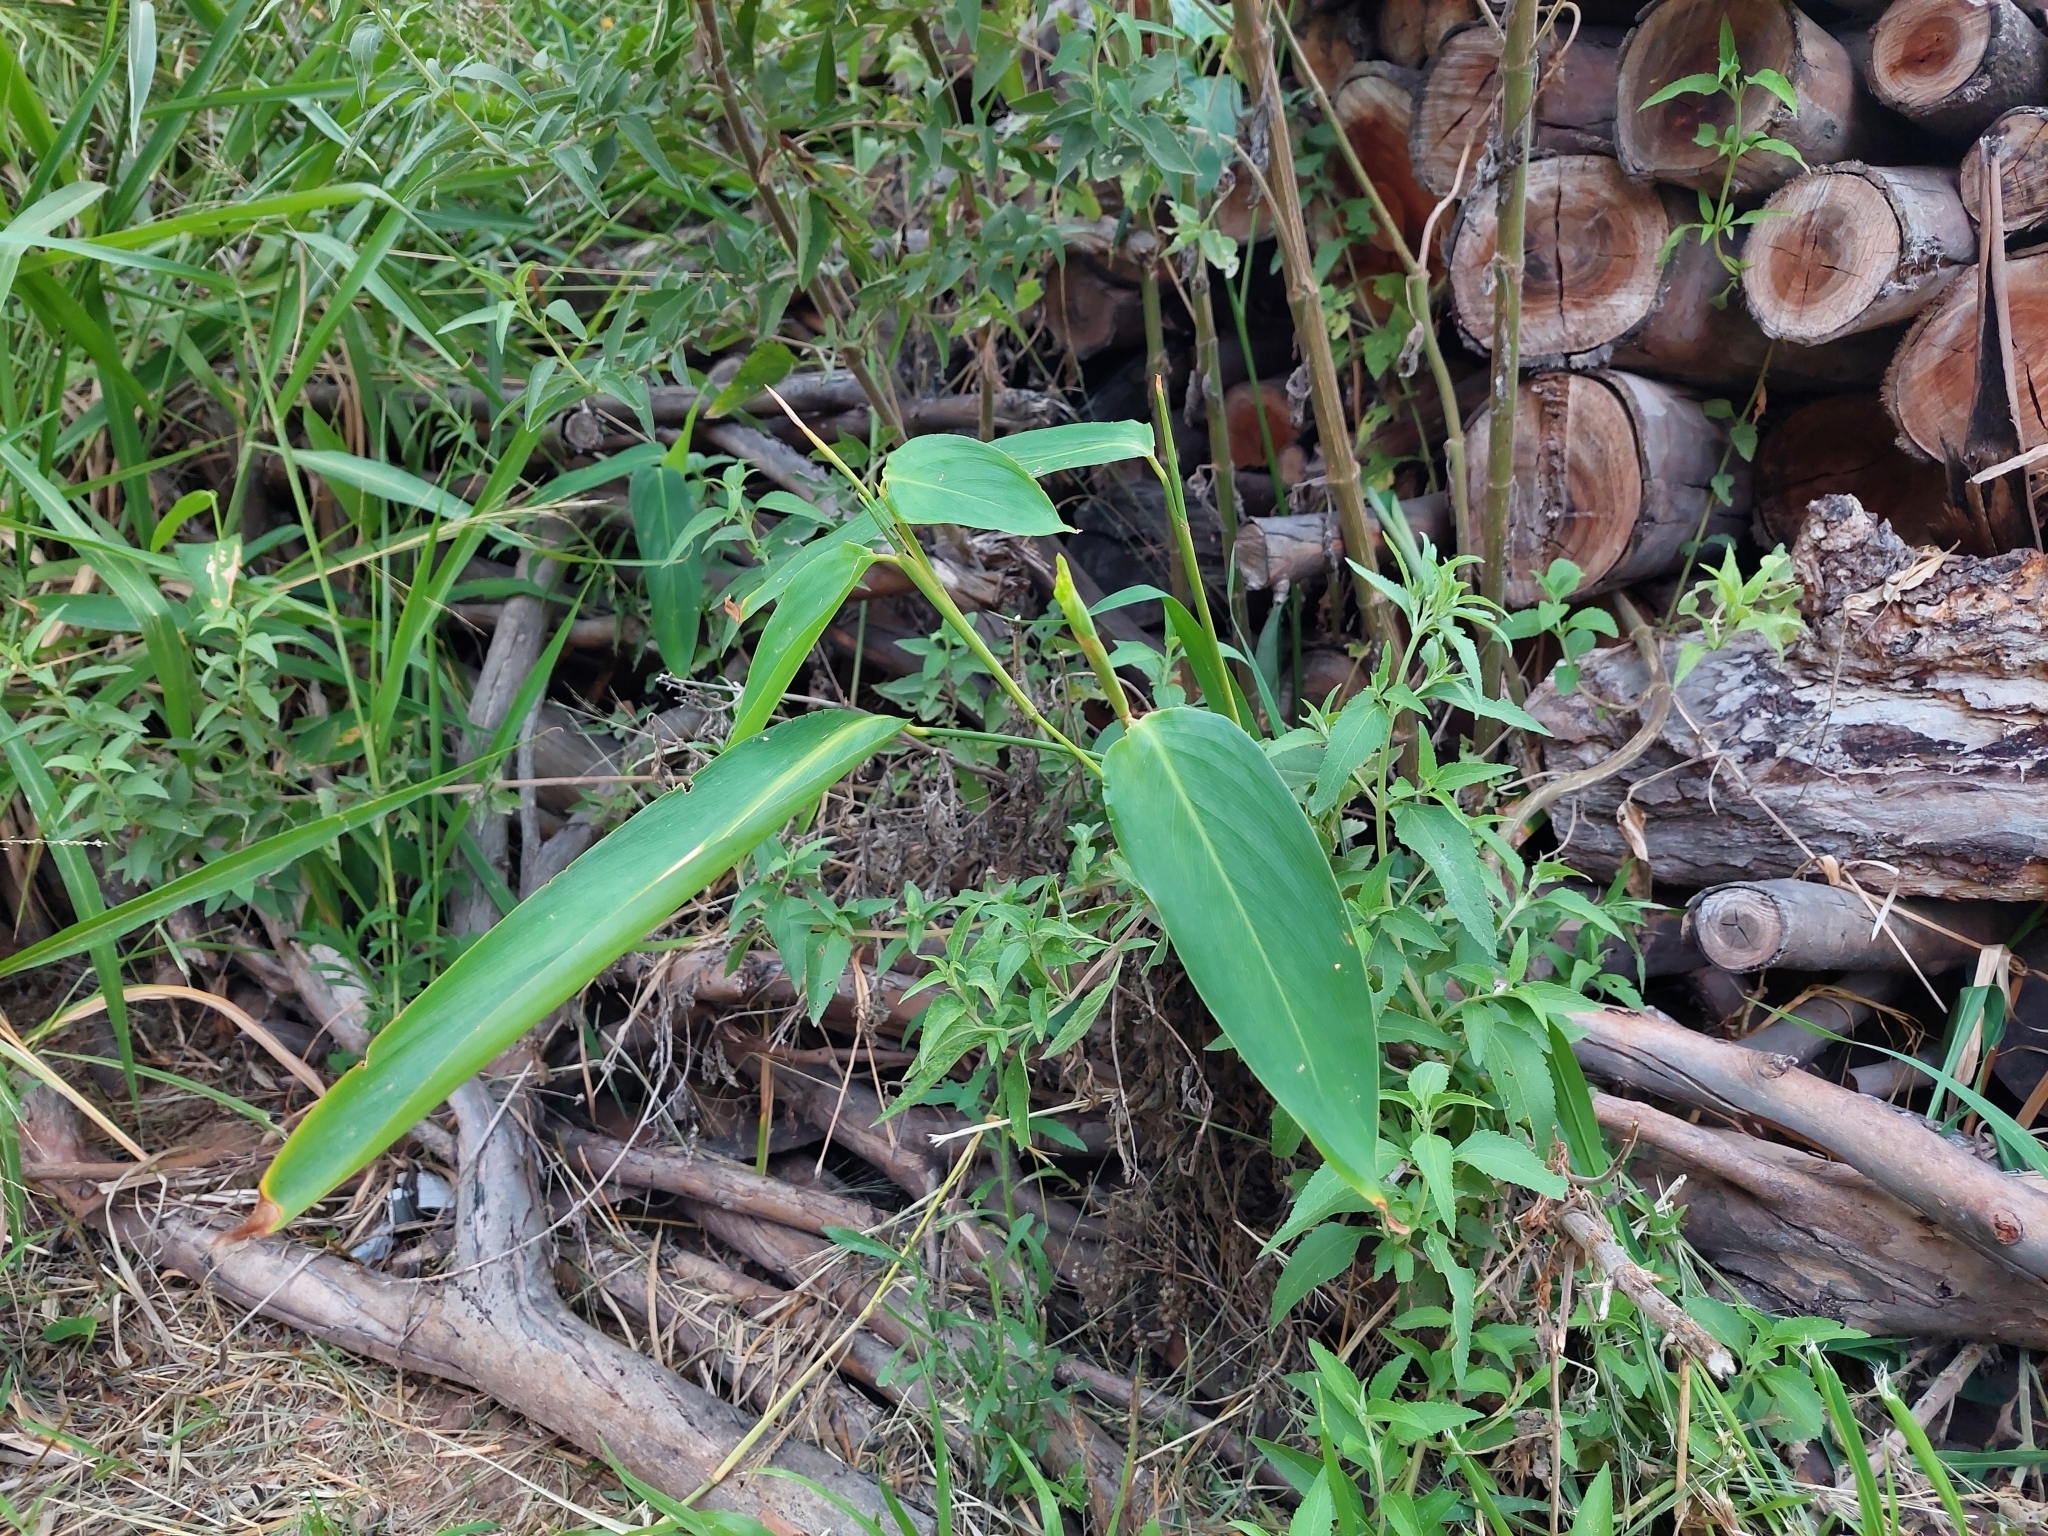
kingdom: Plantae
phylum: Tracheophyta
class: Liliopsida
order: Zingiberales
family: Marantaceae
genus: Maranta
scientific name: Maranta sobolifera
